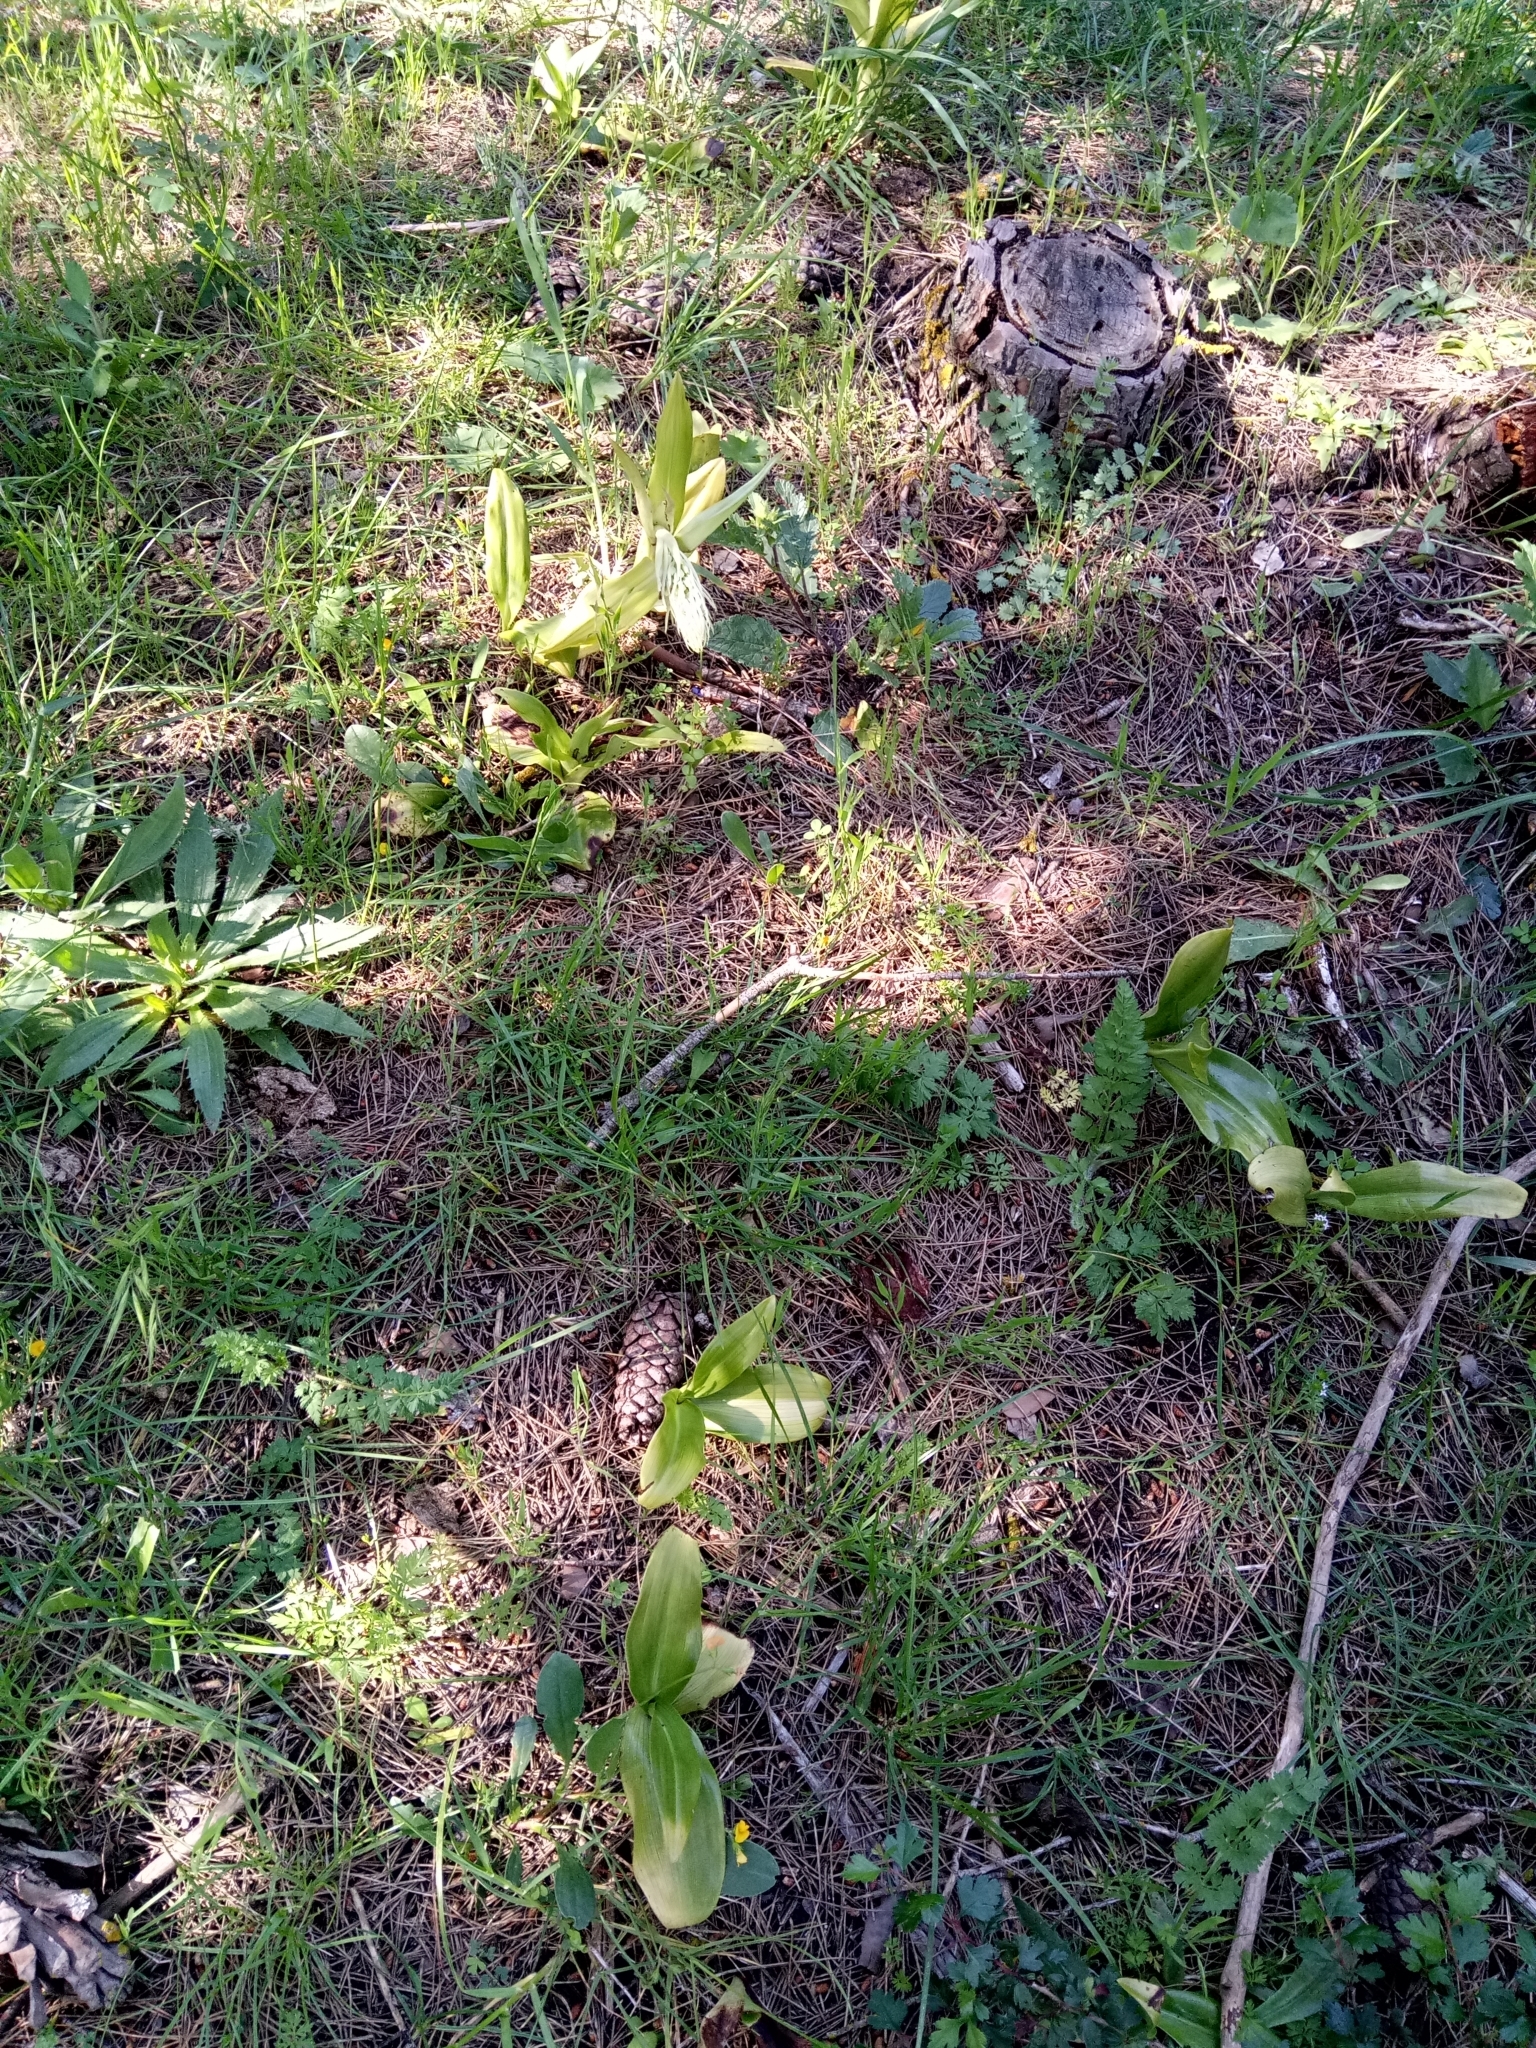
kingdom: Plantae
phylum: Tracheophyta
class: Liliopsida
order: Asparagales
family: Orchidaceae
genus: Himantoglossum
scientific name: Himantoglossum hircinum
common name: Lizard orchid
